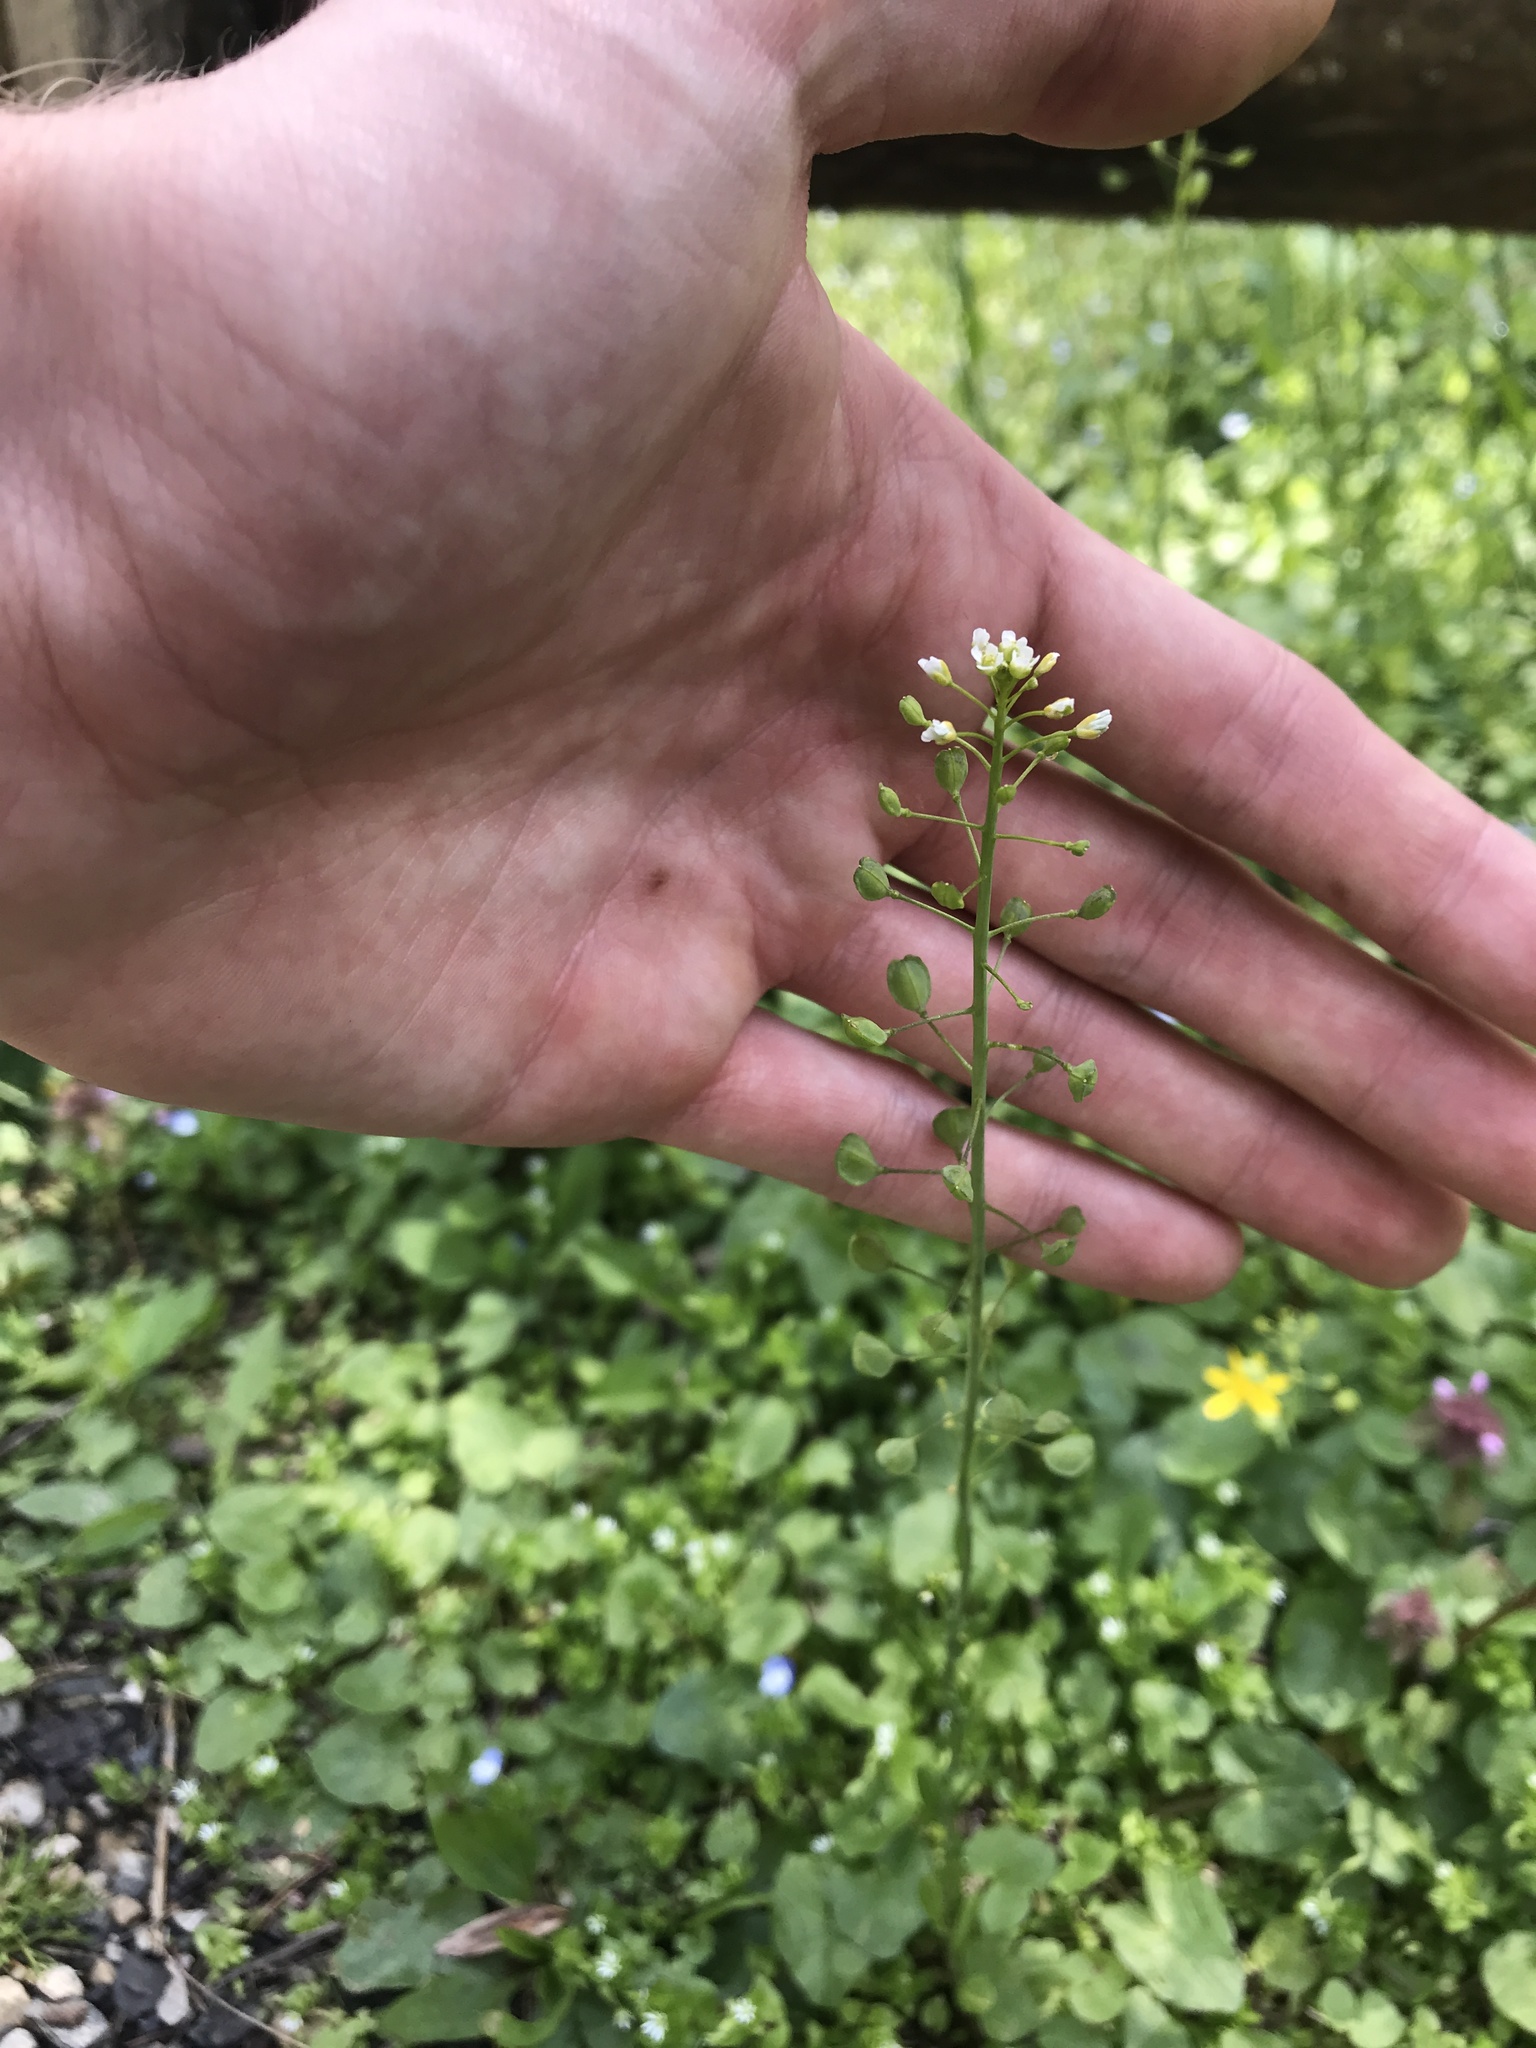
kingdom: Plantae
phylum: Tracheophyta
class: Magnoliopsida
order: Brassicales
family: Brassicaceae
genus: Capsella
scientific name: Capsella bursa-pastoris
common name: Shepherd's purse
